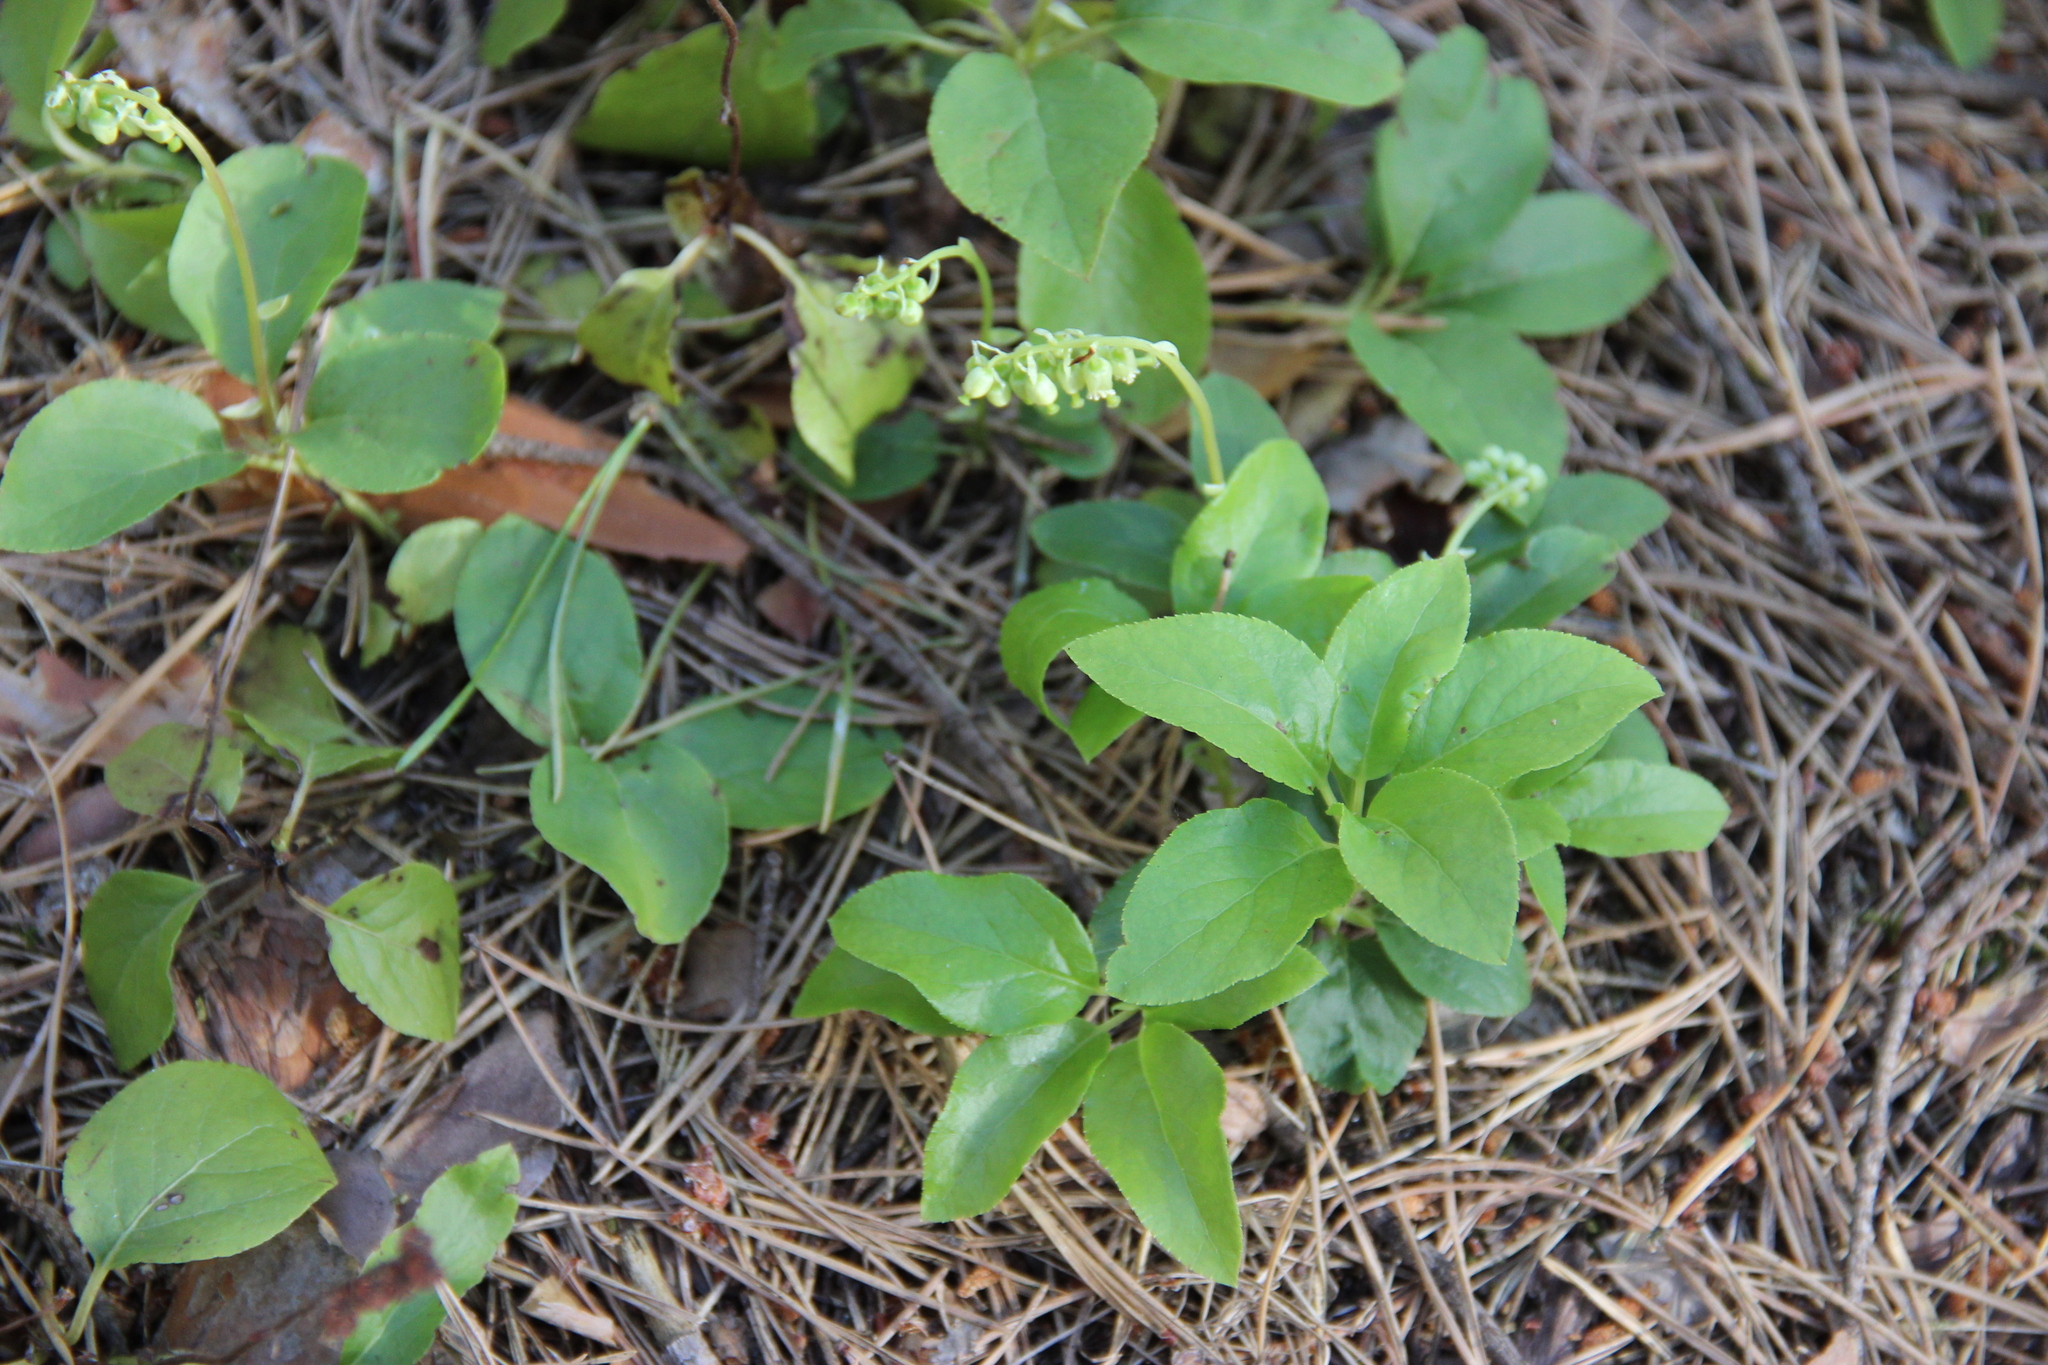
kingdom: Plantae
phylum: Tracheophyta
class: Magnoliopsida
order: Ericales
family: Ericaceae
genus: Orthilia
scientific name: Orthilia secunda
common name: One-sided orthilia
